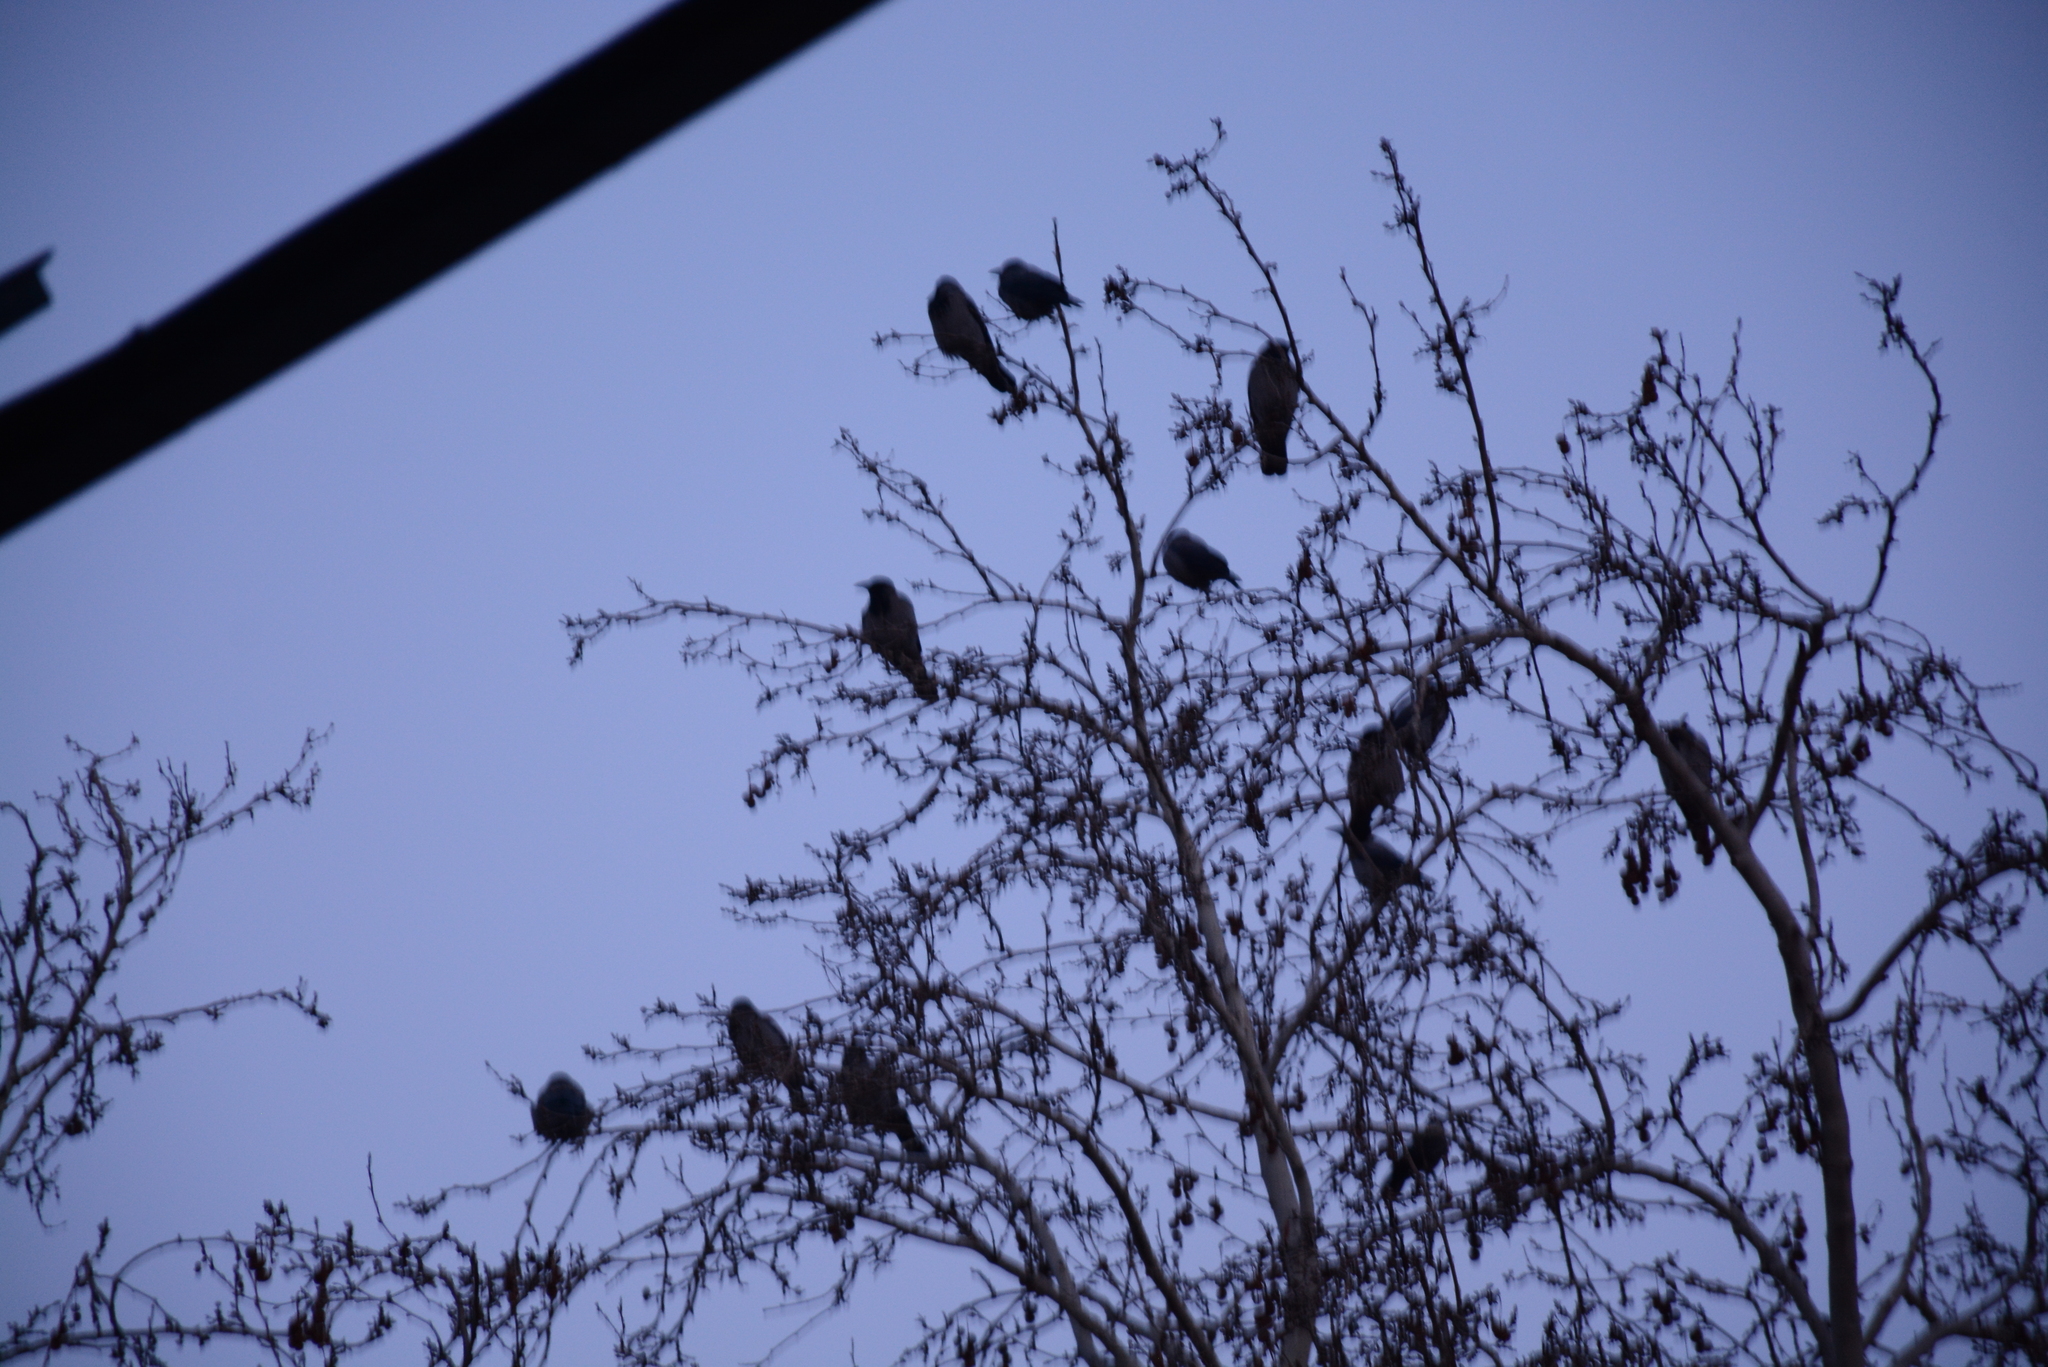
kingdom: Animalia
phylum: Chordata
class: Aves
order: Passeriformes
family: Corvidae
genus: Corvus
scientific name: Corvus cornix
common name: Hooded crow
